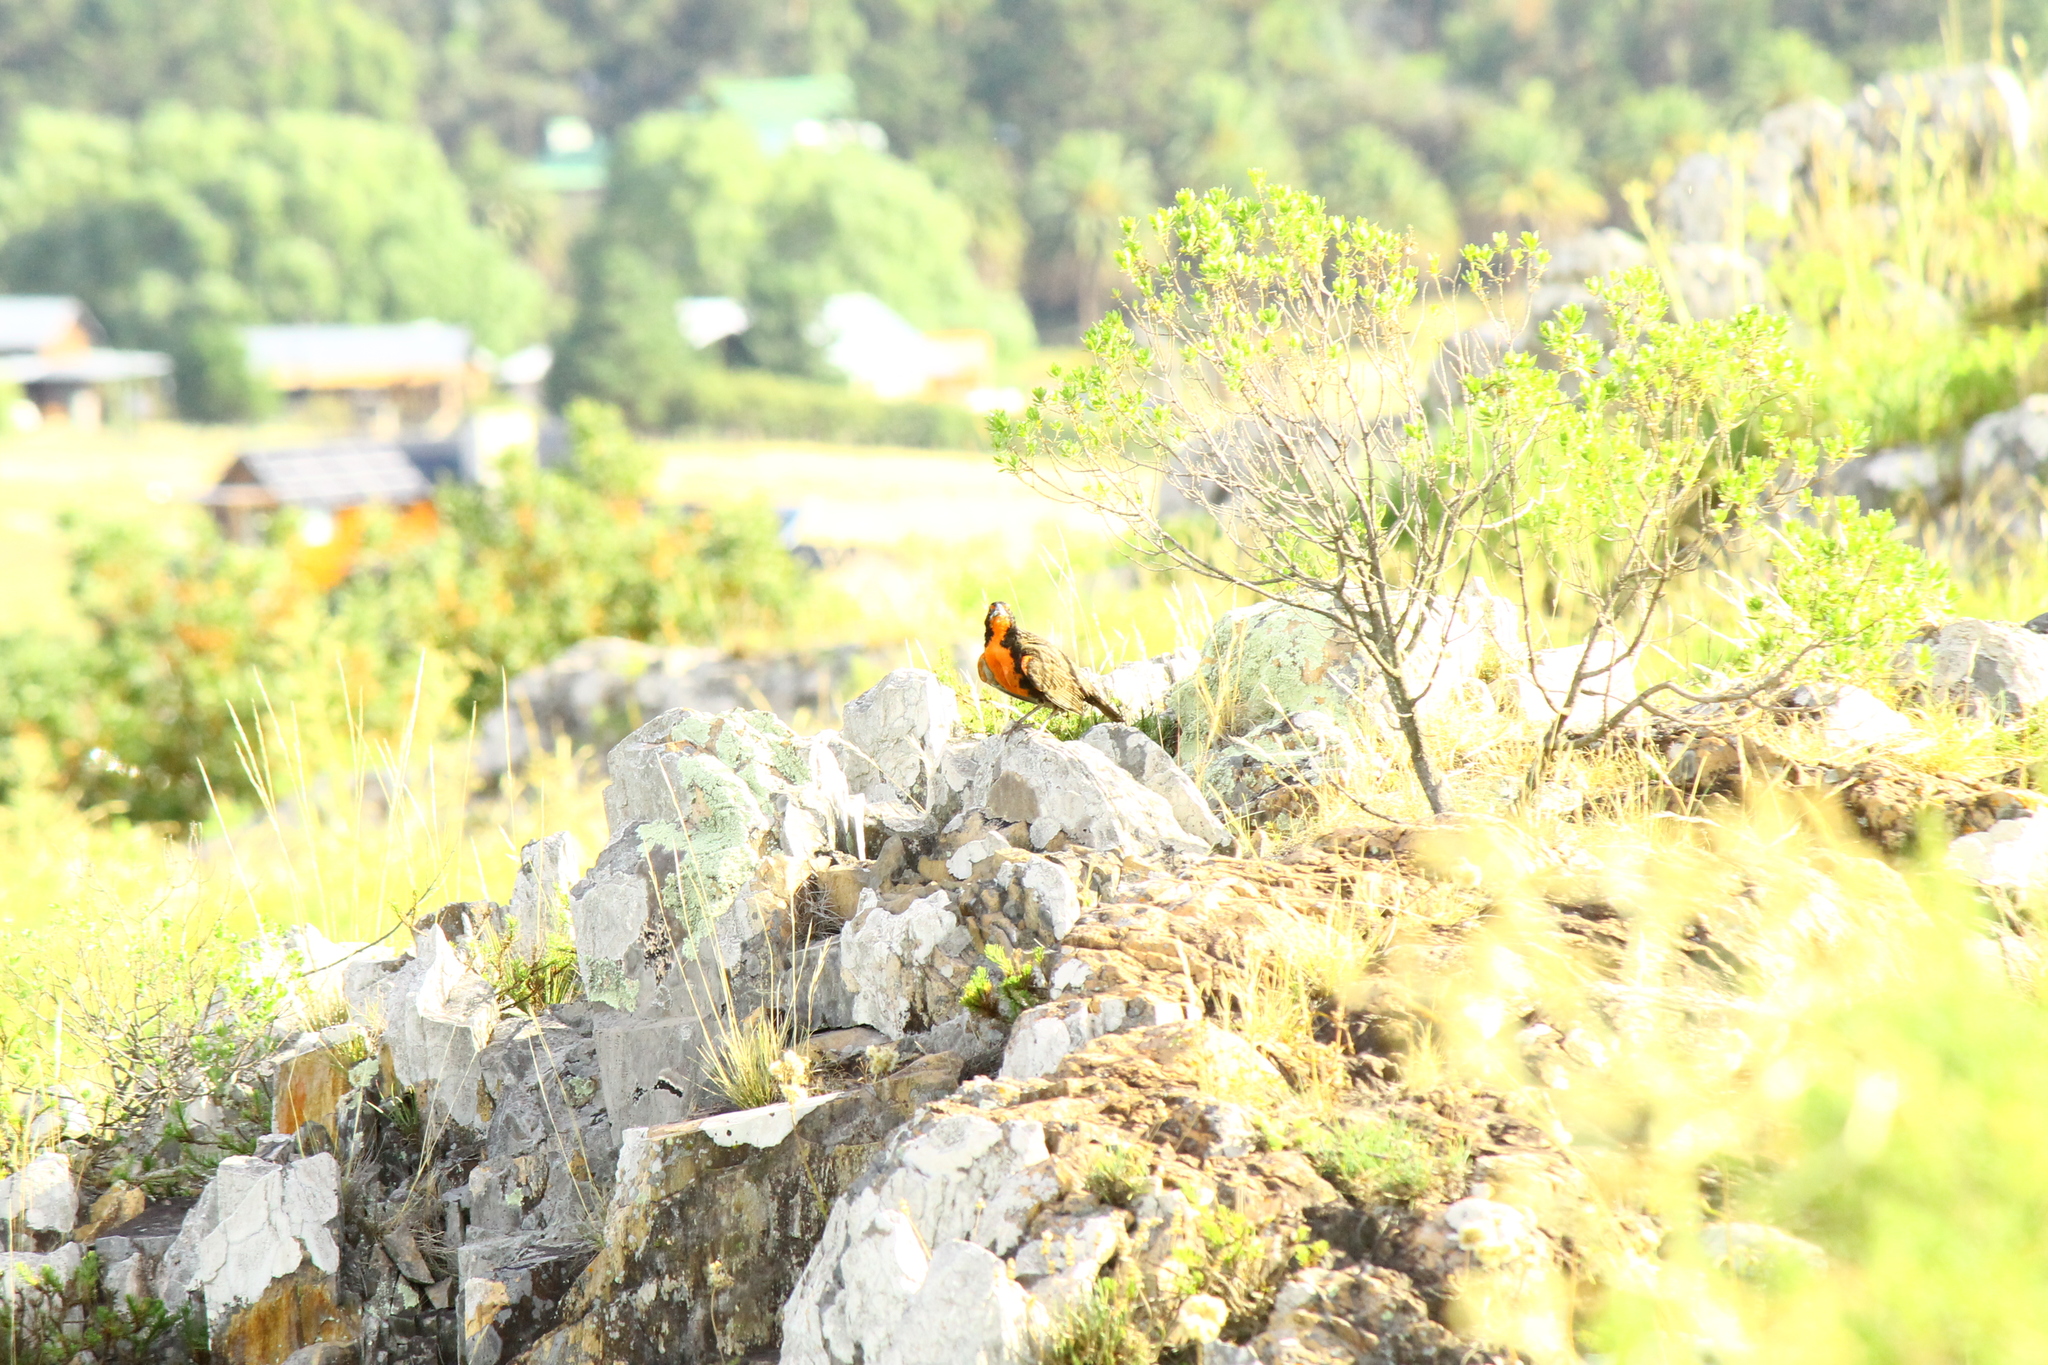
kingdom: Animalia
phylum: Chordata
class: Aves
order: Passeriformes
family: Icteridae
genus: Sturnella
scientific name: Sturnella loyca
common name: Long-tailed meadowlark
